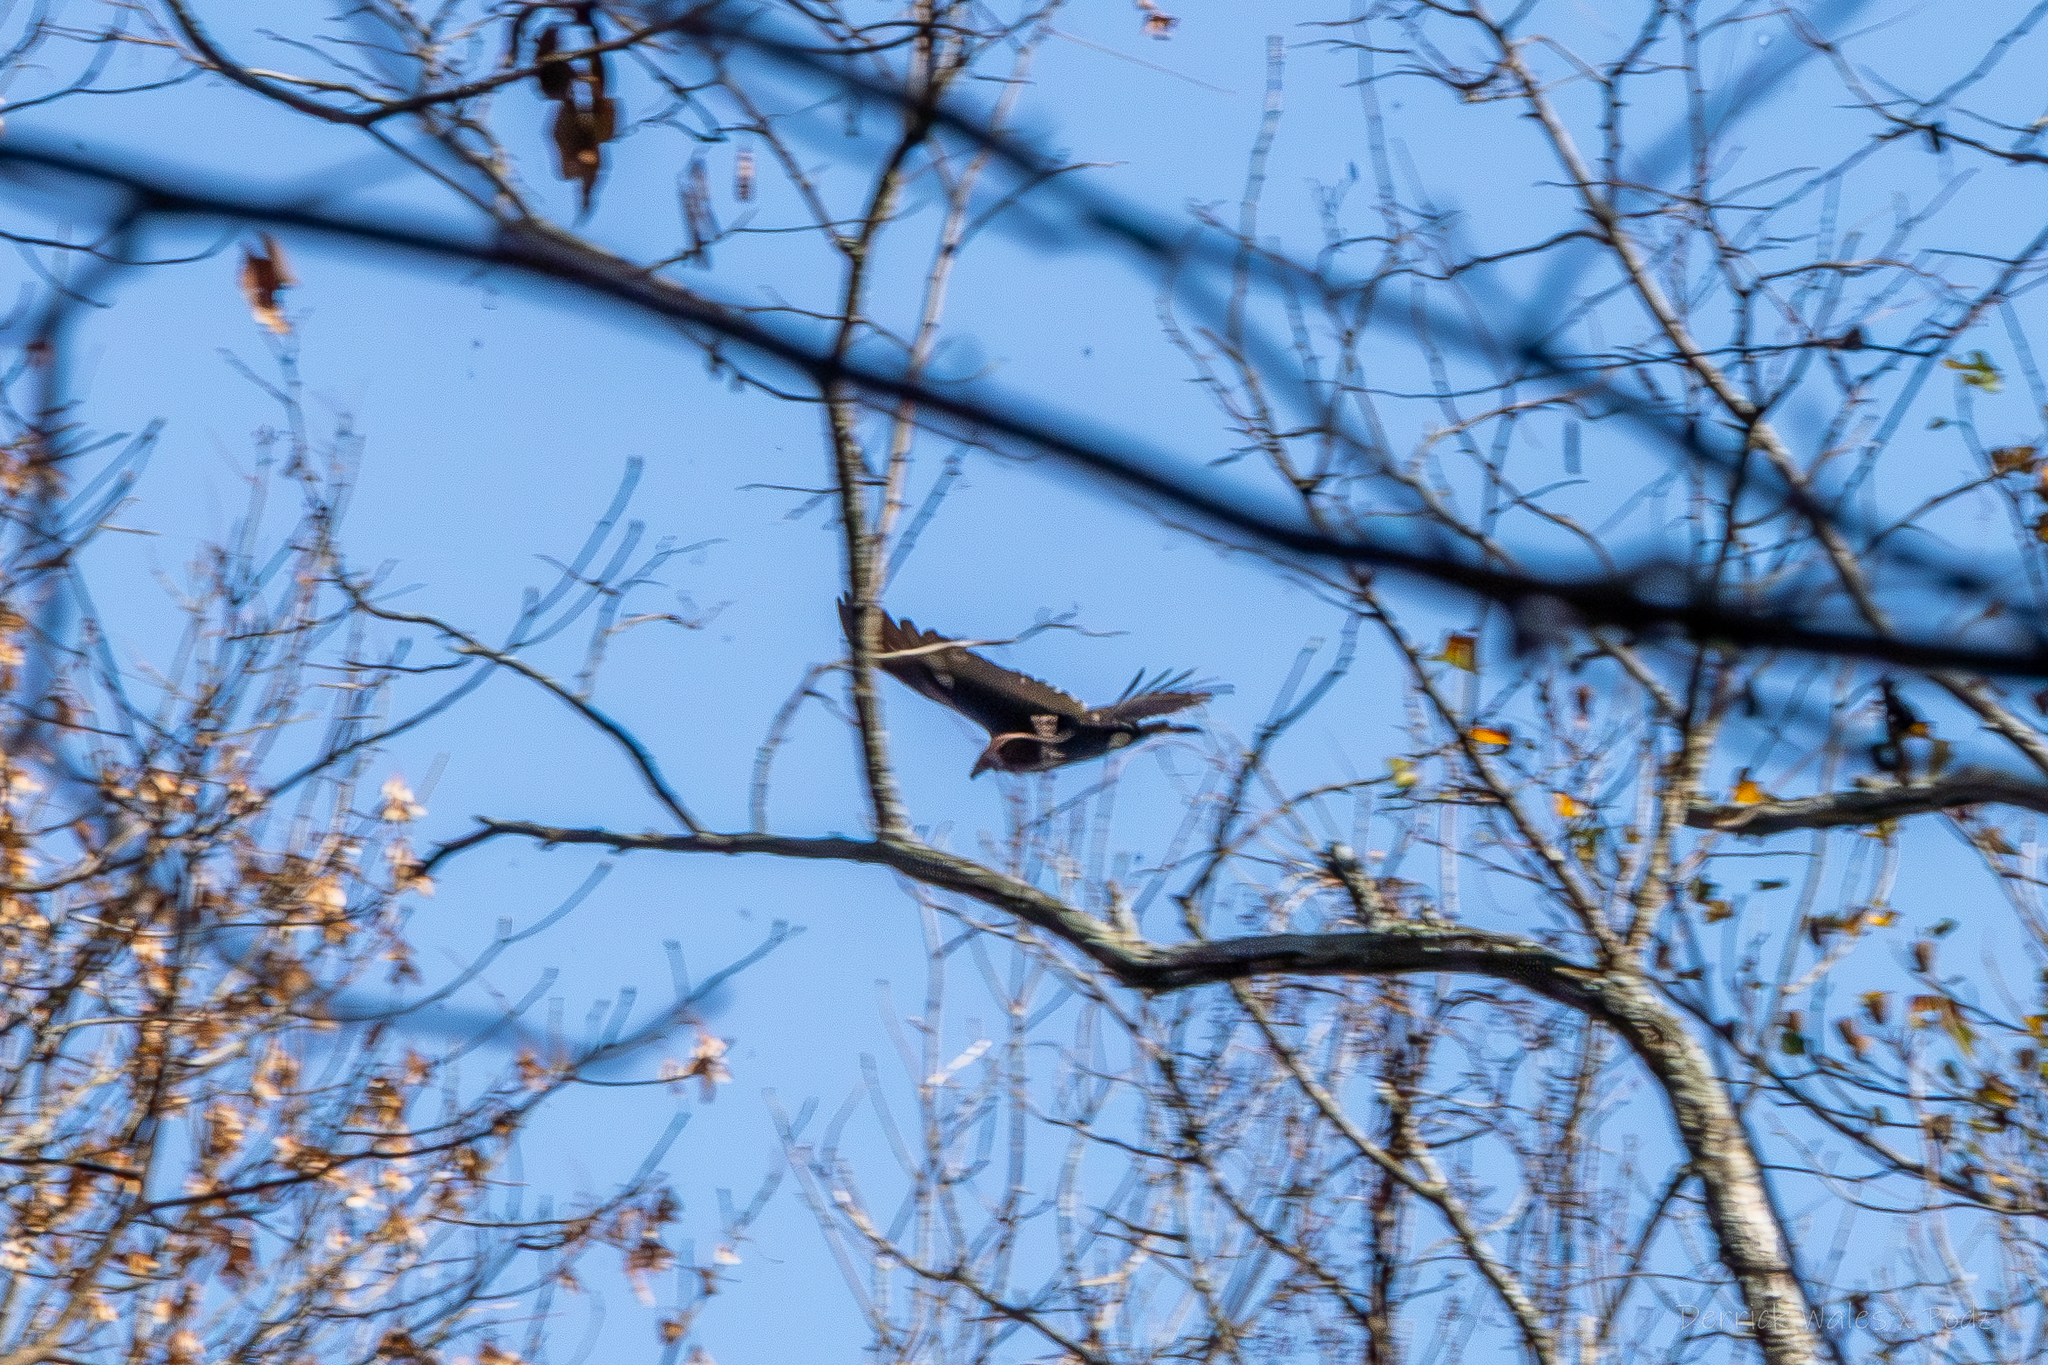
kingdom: Animalia
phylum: Chordata
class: Aves
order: Accipitriformes
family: Cathartidae
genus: Cathartes
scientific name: Cathartes aura
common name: Turkey vulture
